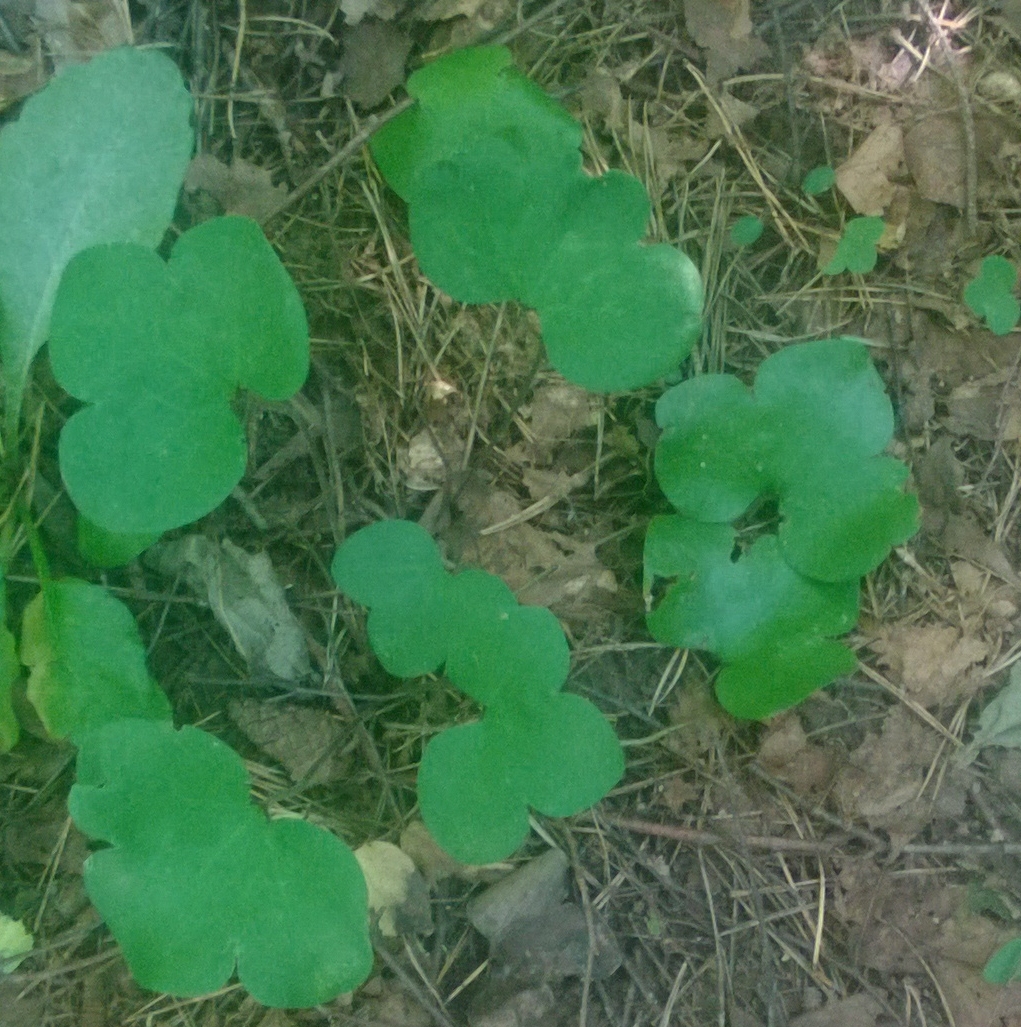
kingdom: Plantae
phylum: Tracheophyta
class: Magnoliopsida
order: Ranunculales
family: Ranunculaceae
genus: Hepatica
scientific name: Hepatica nobilis
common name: Liverleaf
